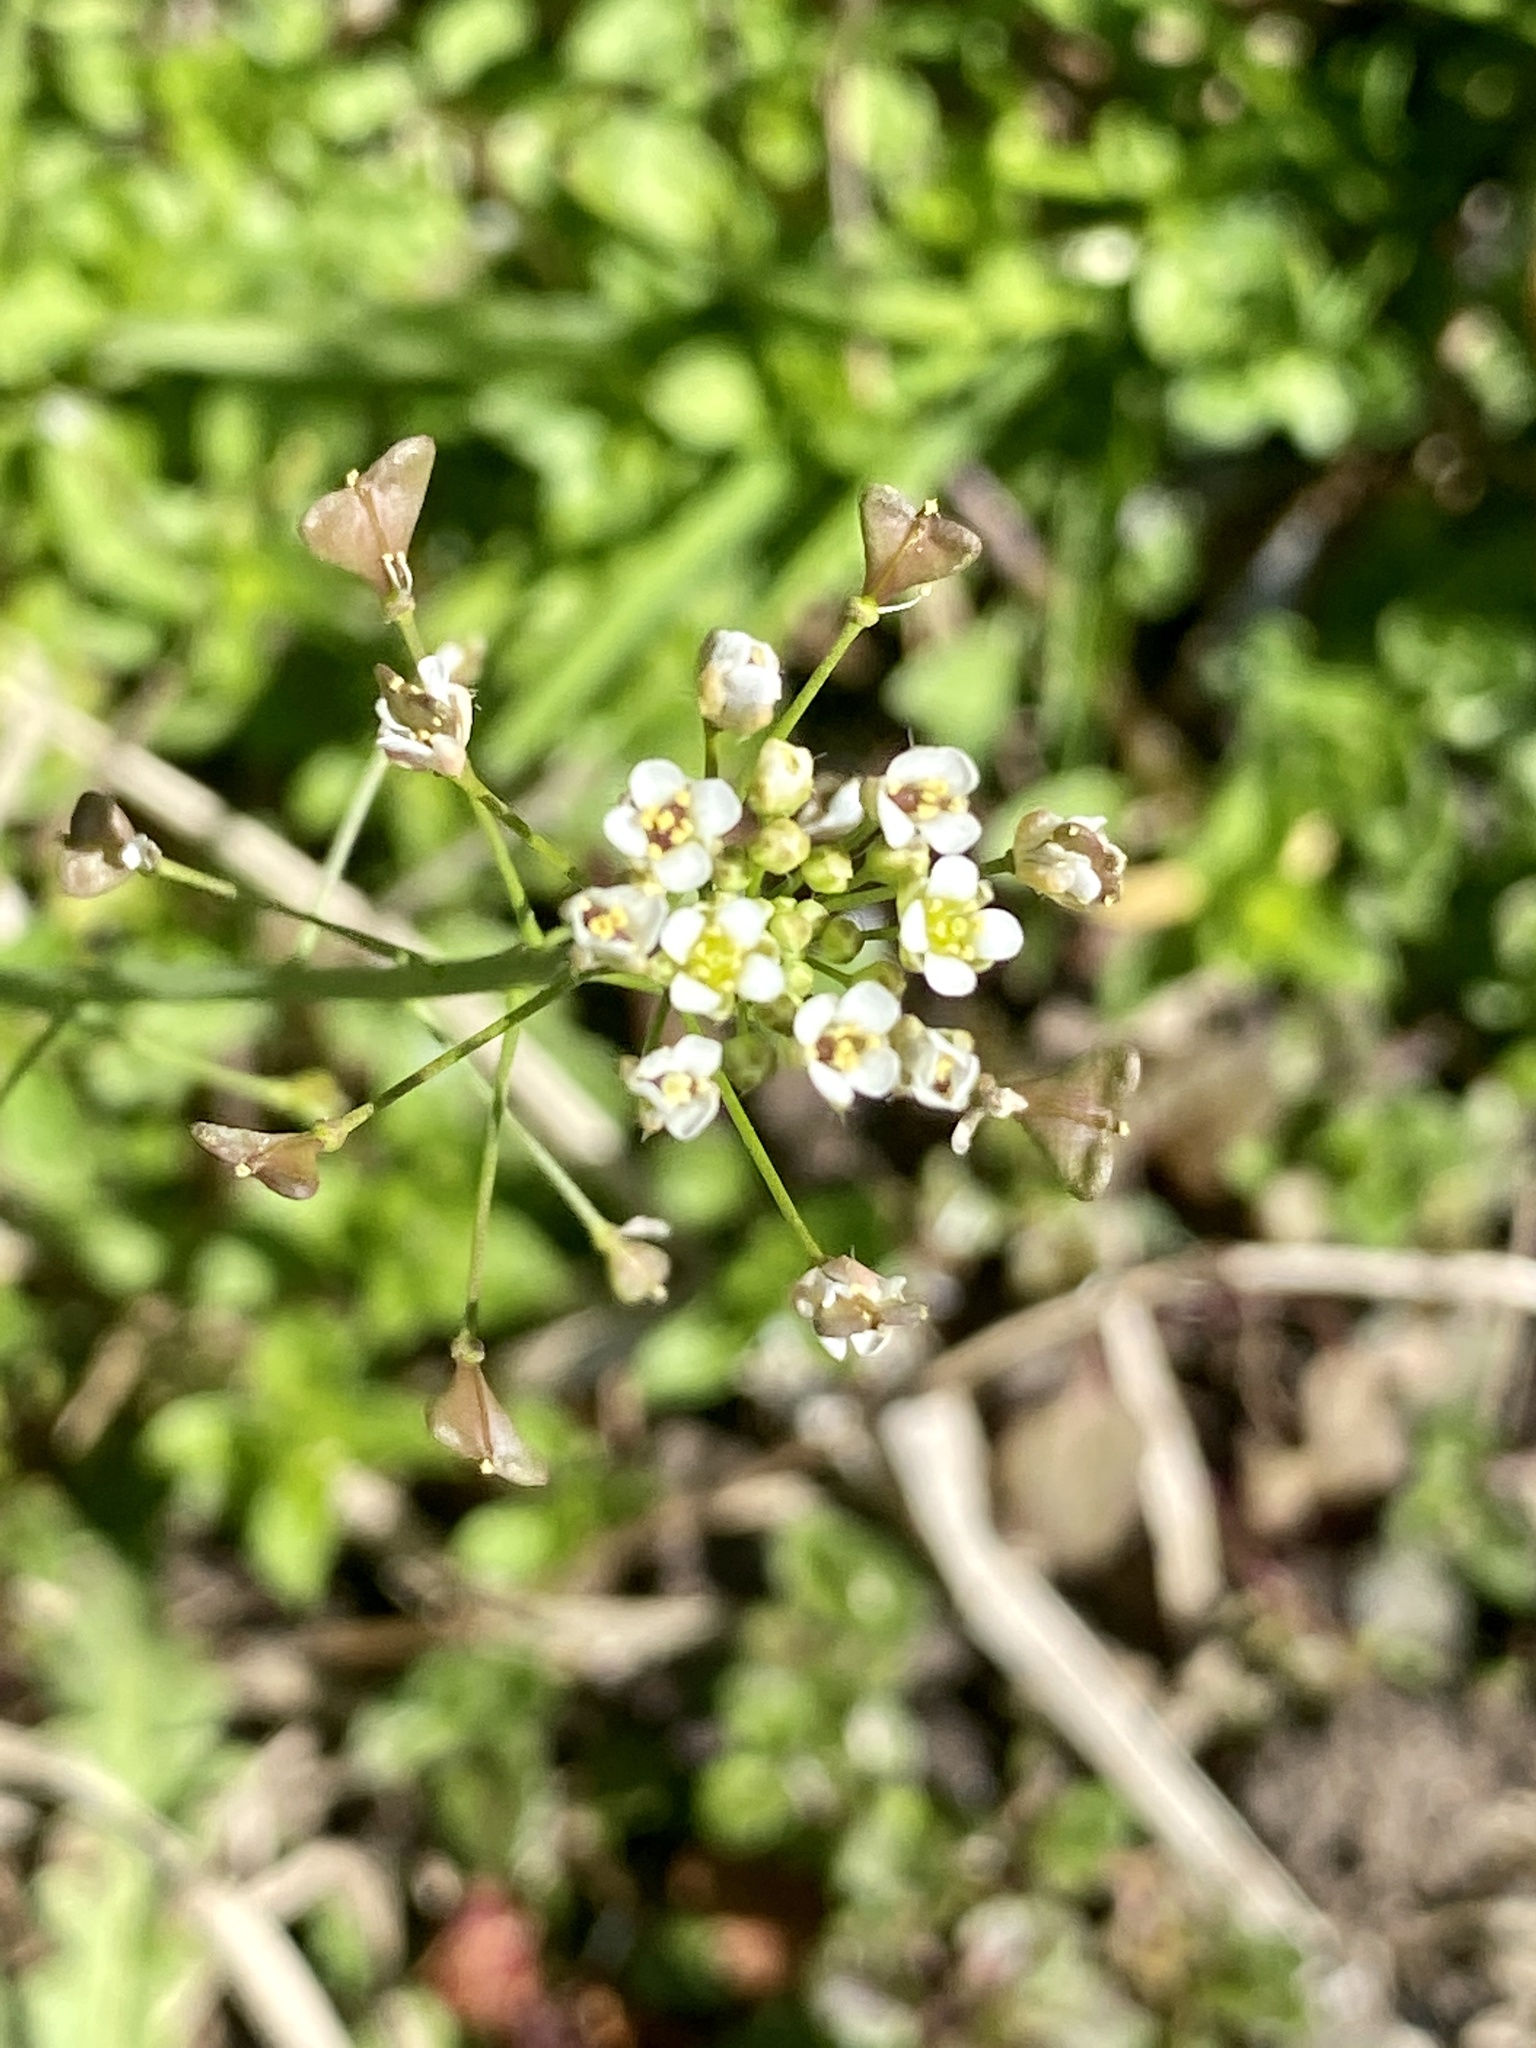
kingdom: Plantae
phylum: Tracheophyta
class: Magnoliopsida
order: Brassicales
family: Brassicaceae
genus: Capsella
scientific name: Capsella bursa-pastoris
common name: Shepherd's purse
